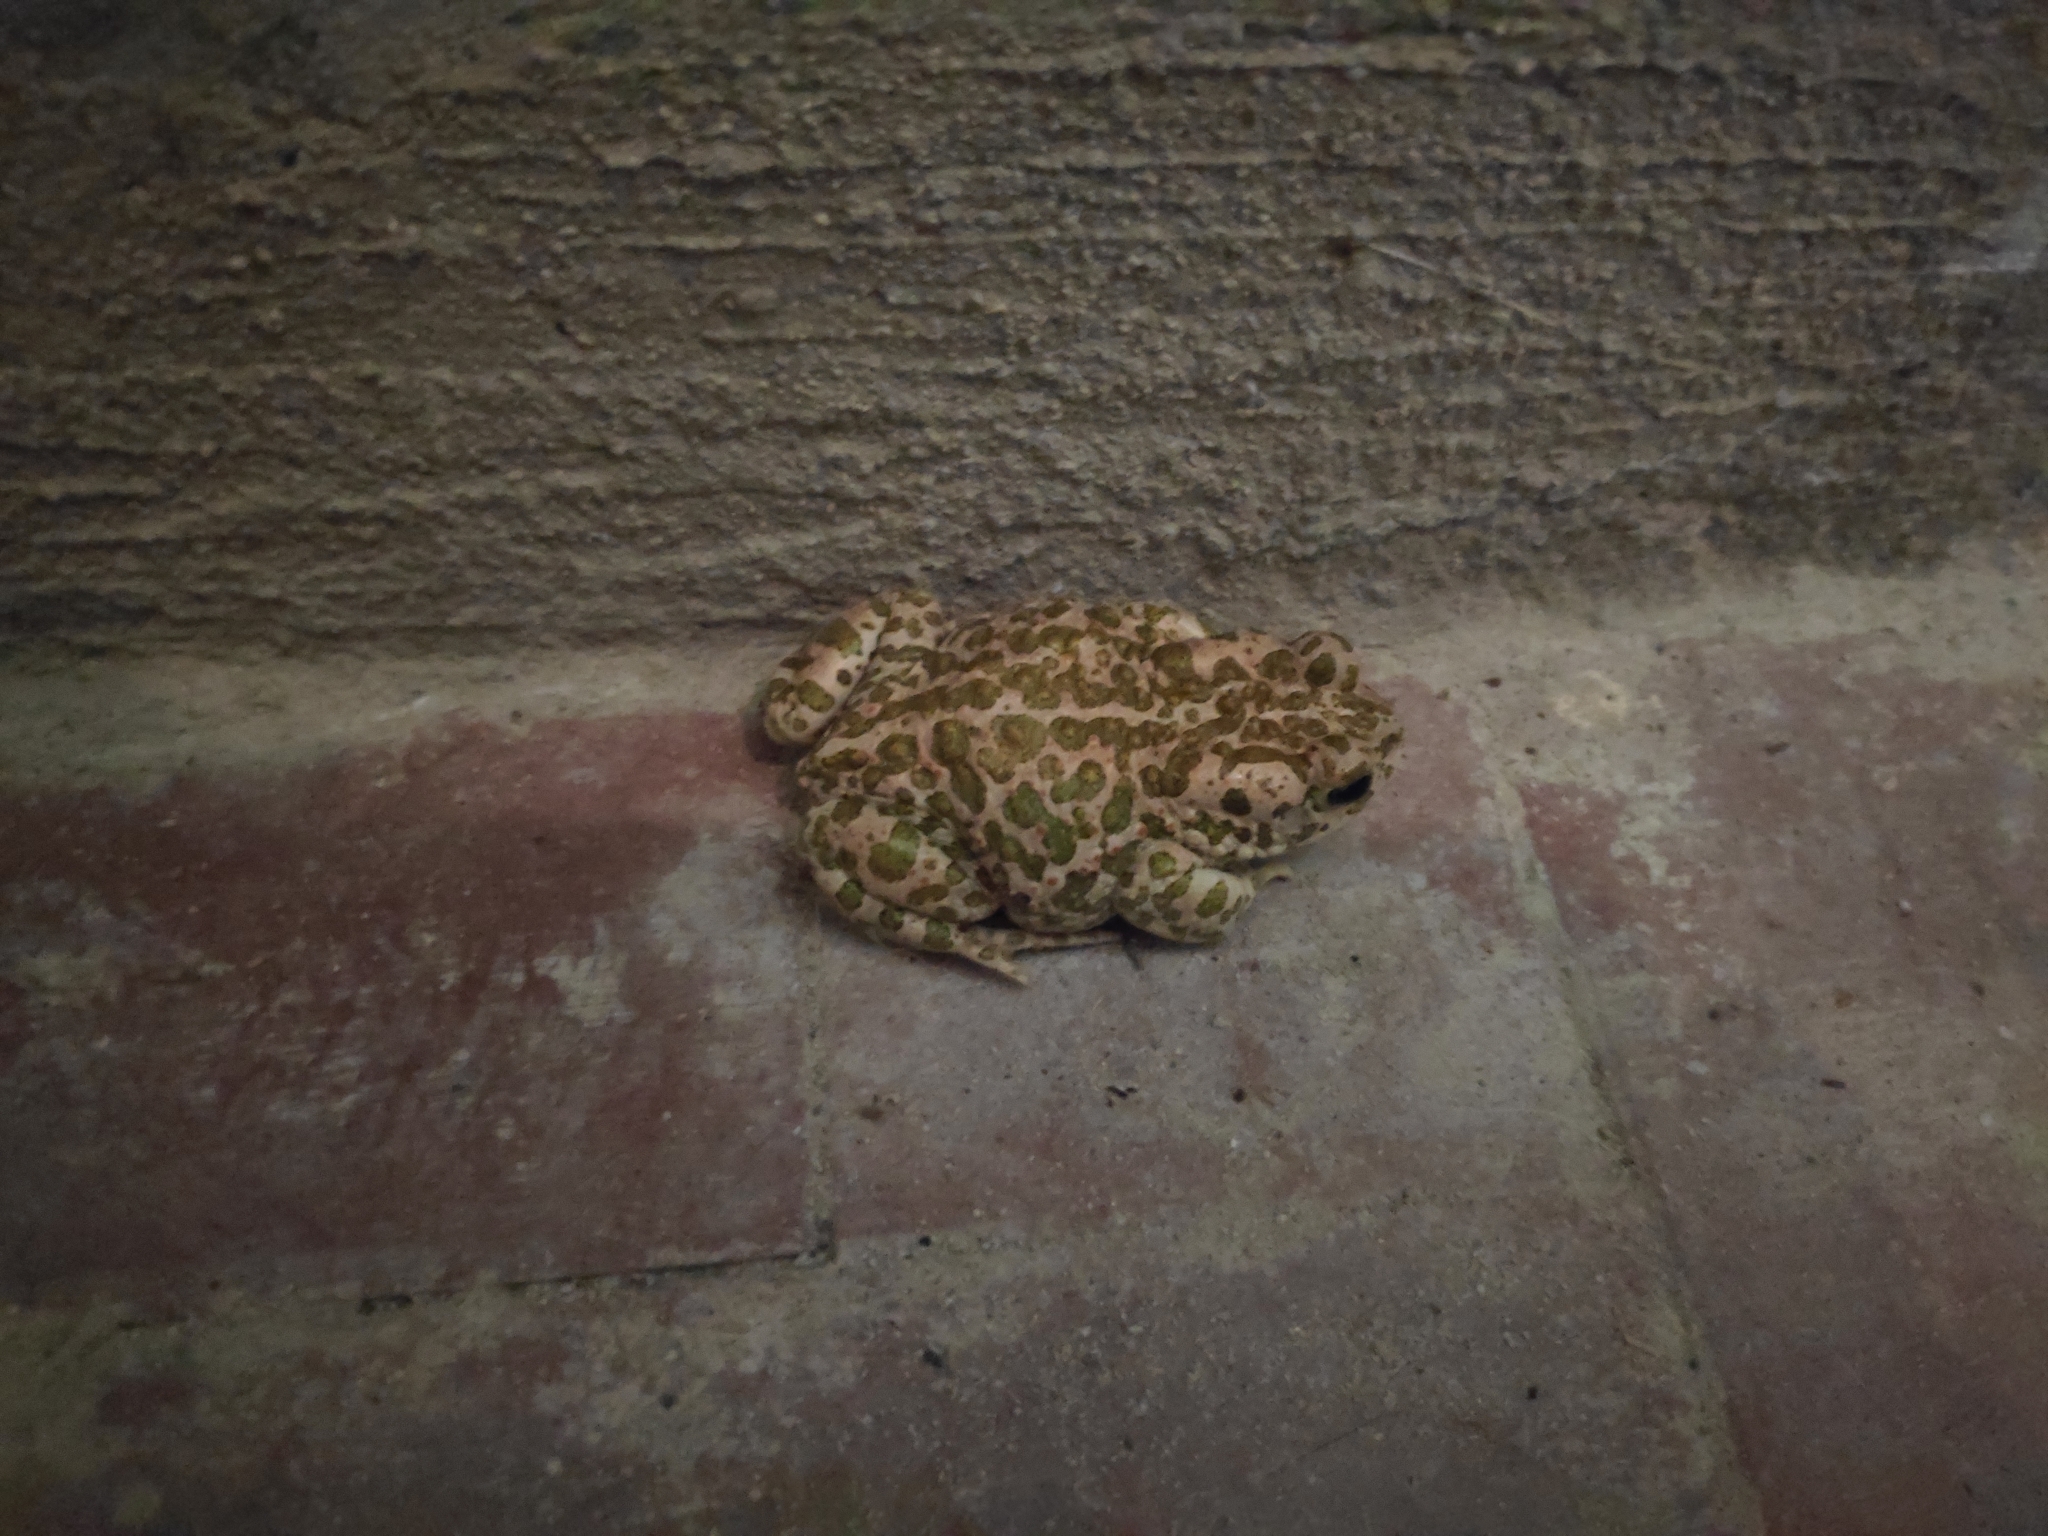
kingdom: Animalia
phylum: Chordata
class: Amphibia
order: Anura
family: Bufonidae
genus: Bufotes
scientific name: Bufotes viridis
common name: European green toad
